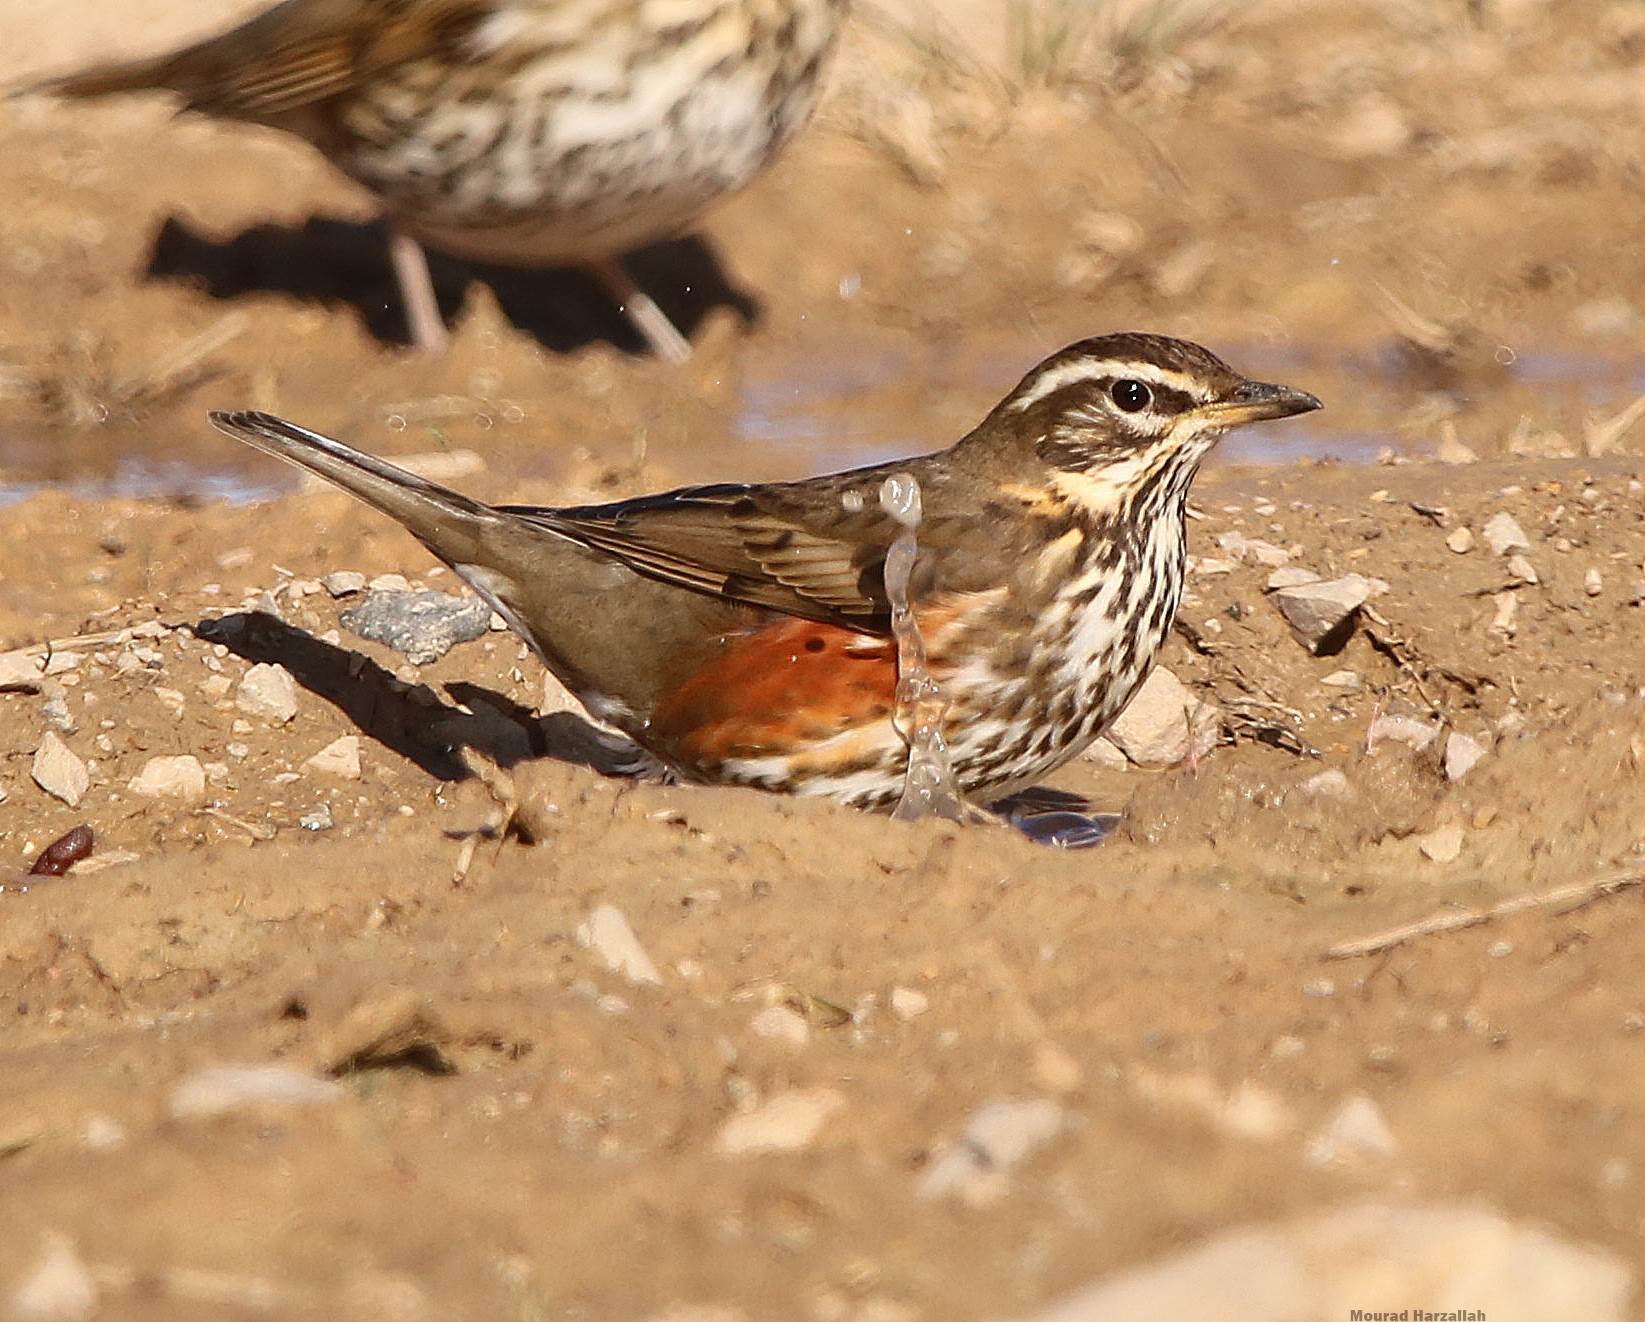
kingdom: Animalia
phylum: Chordata
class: Aves
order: Passeriformes
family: Turdidae
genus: Turdus
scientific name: Turdus iliacus
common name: Redwing
